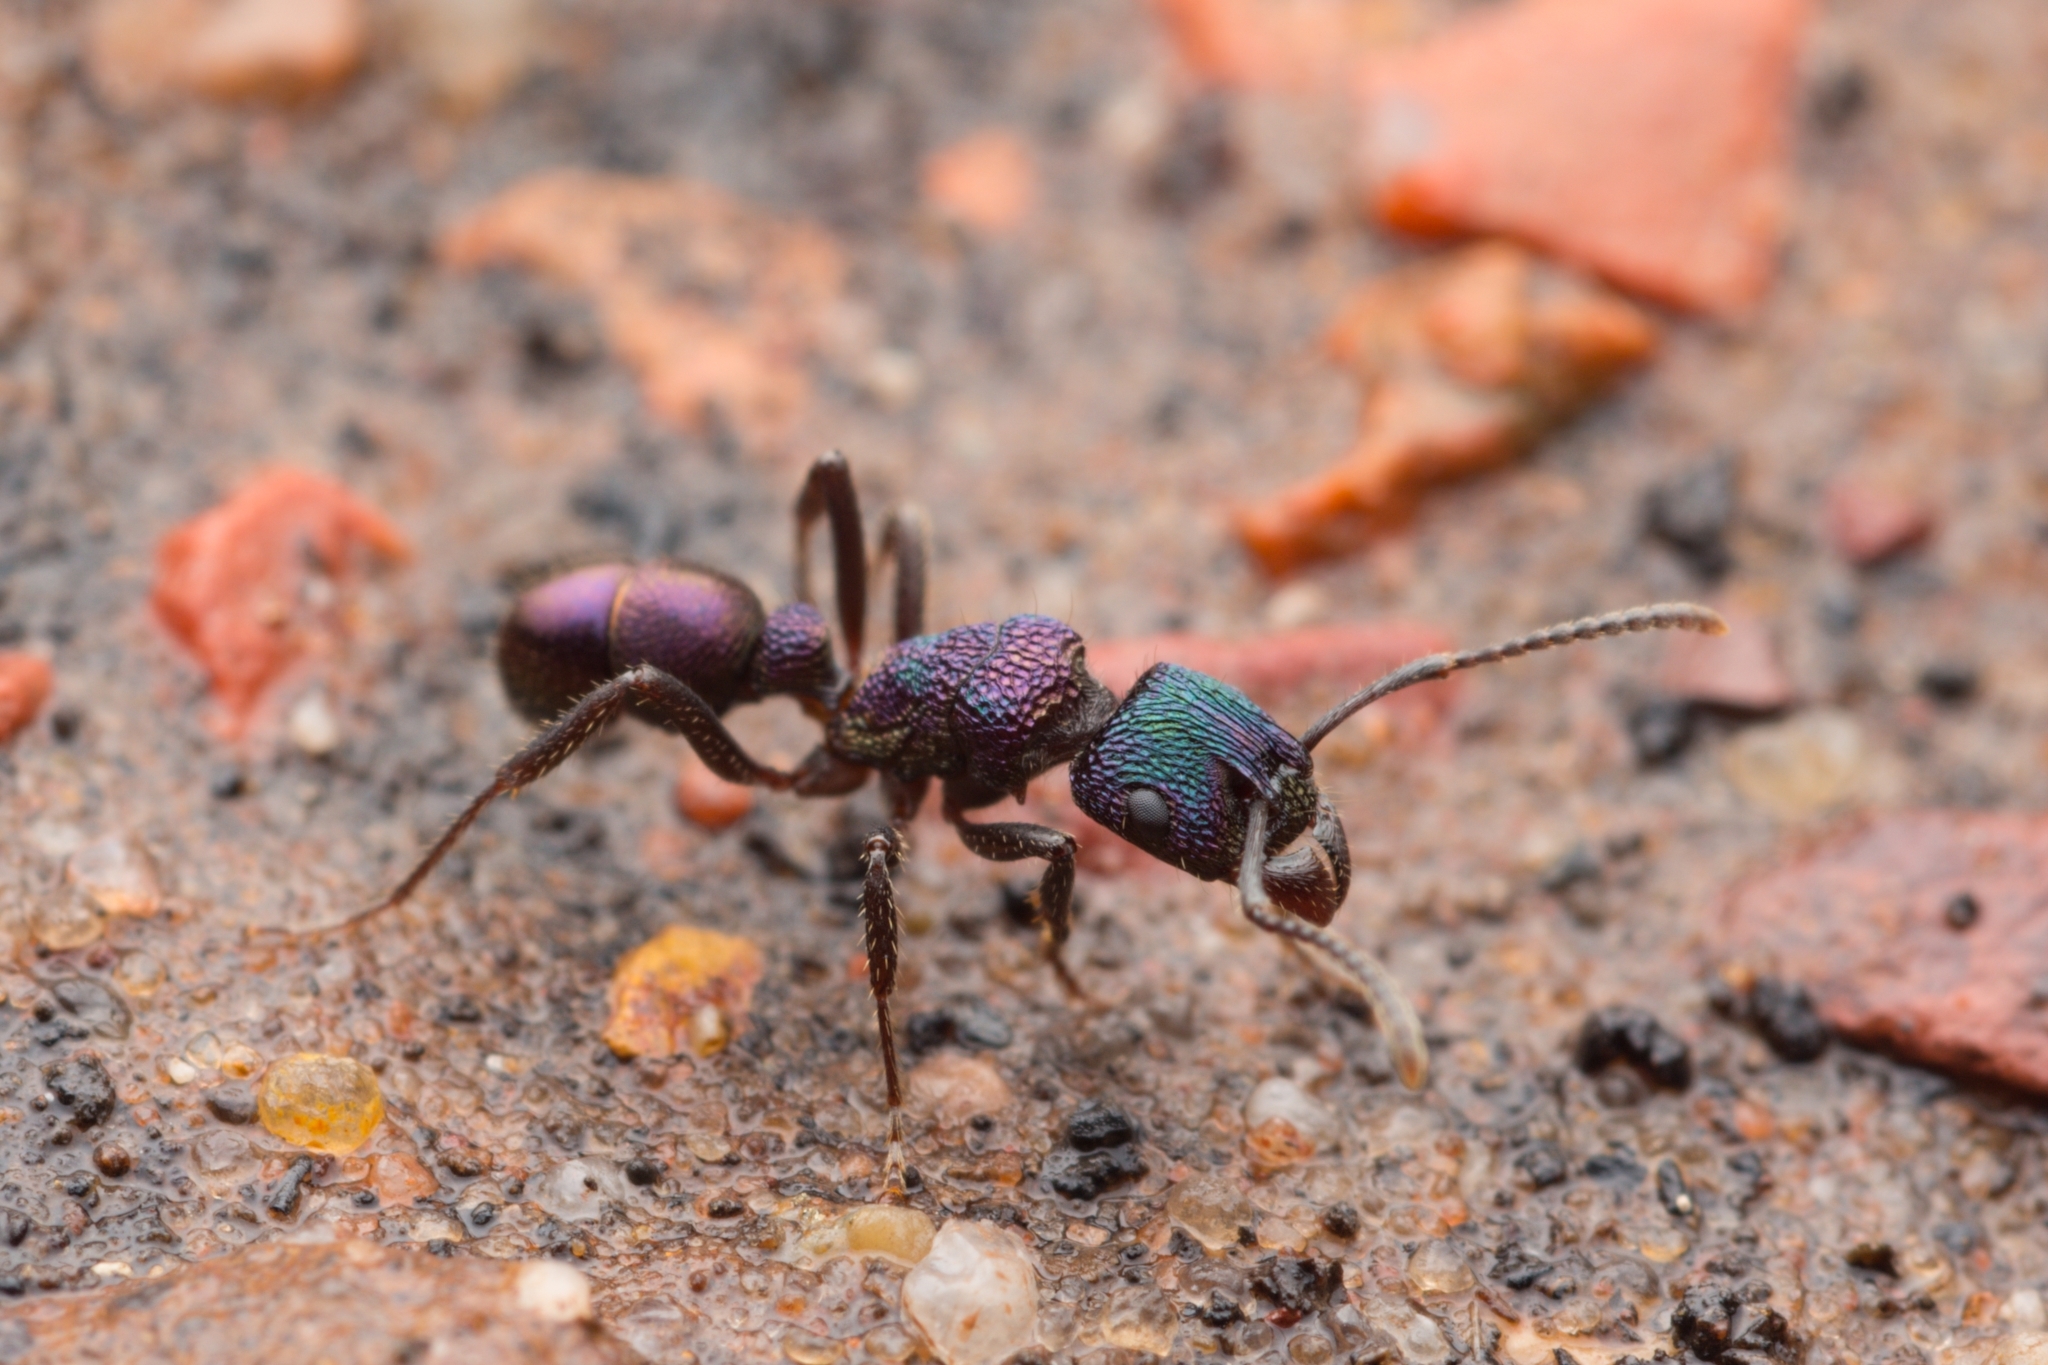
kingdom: Animalia
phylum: Arthropoda
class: Insecta
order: Hymenoptera
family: Formicidae
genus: Rhytidoponera
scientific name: Rhytidoponera metallica
